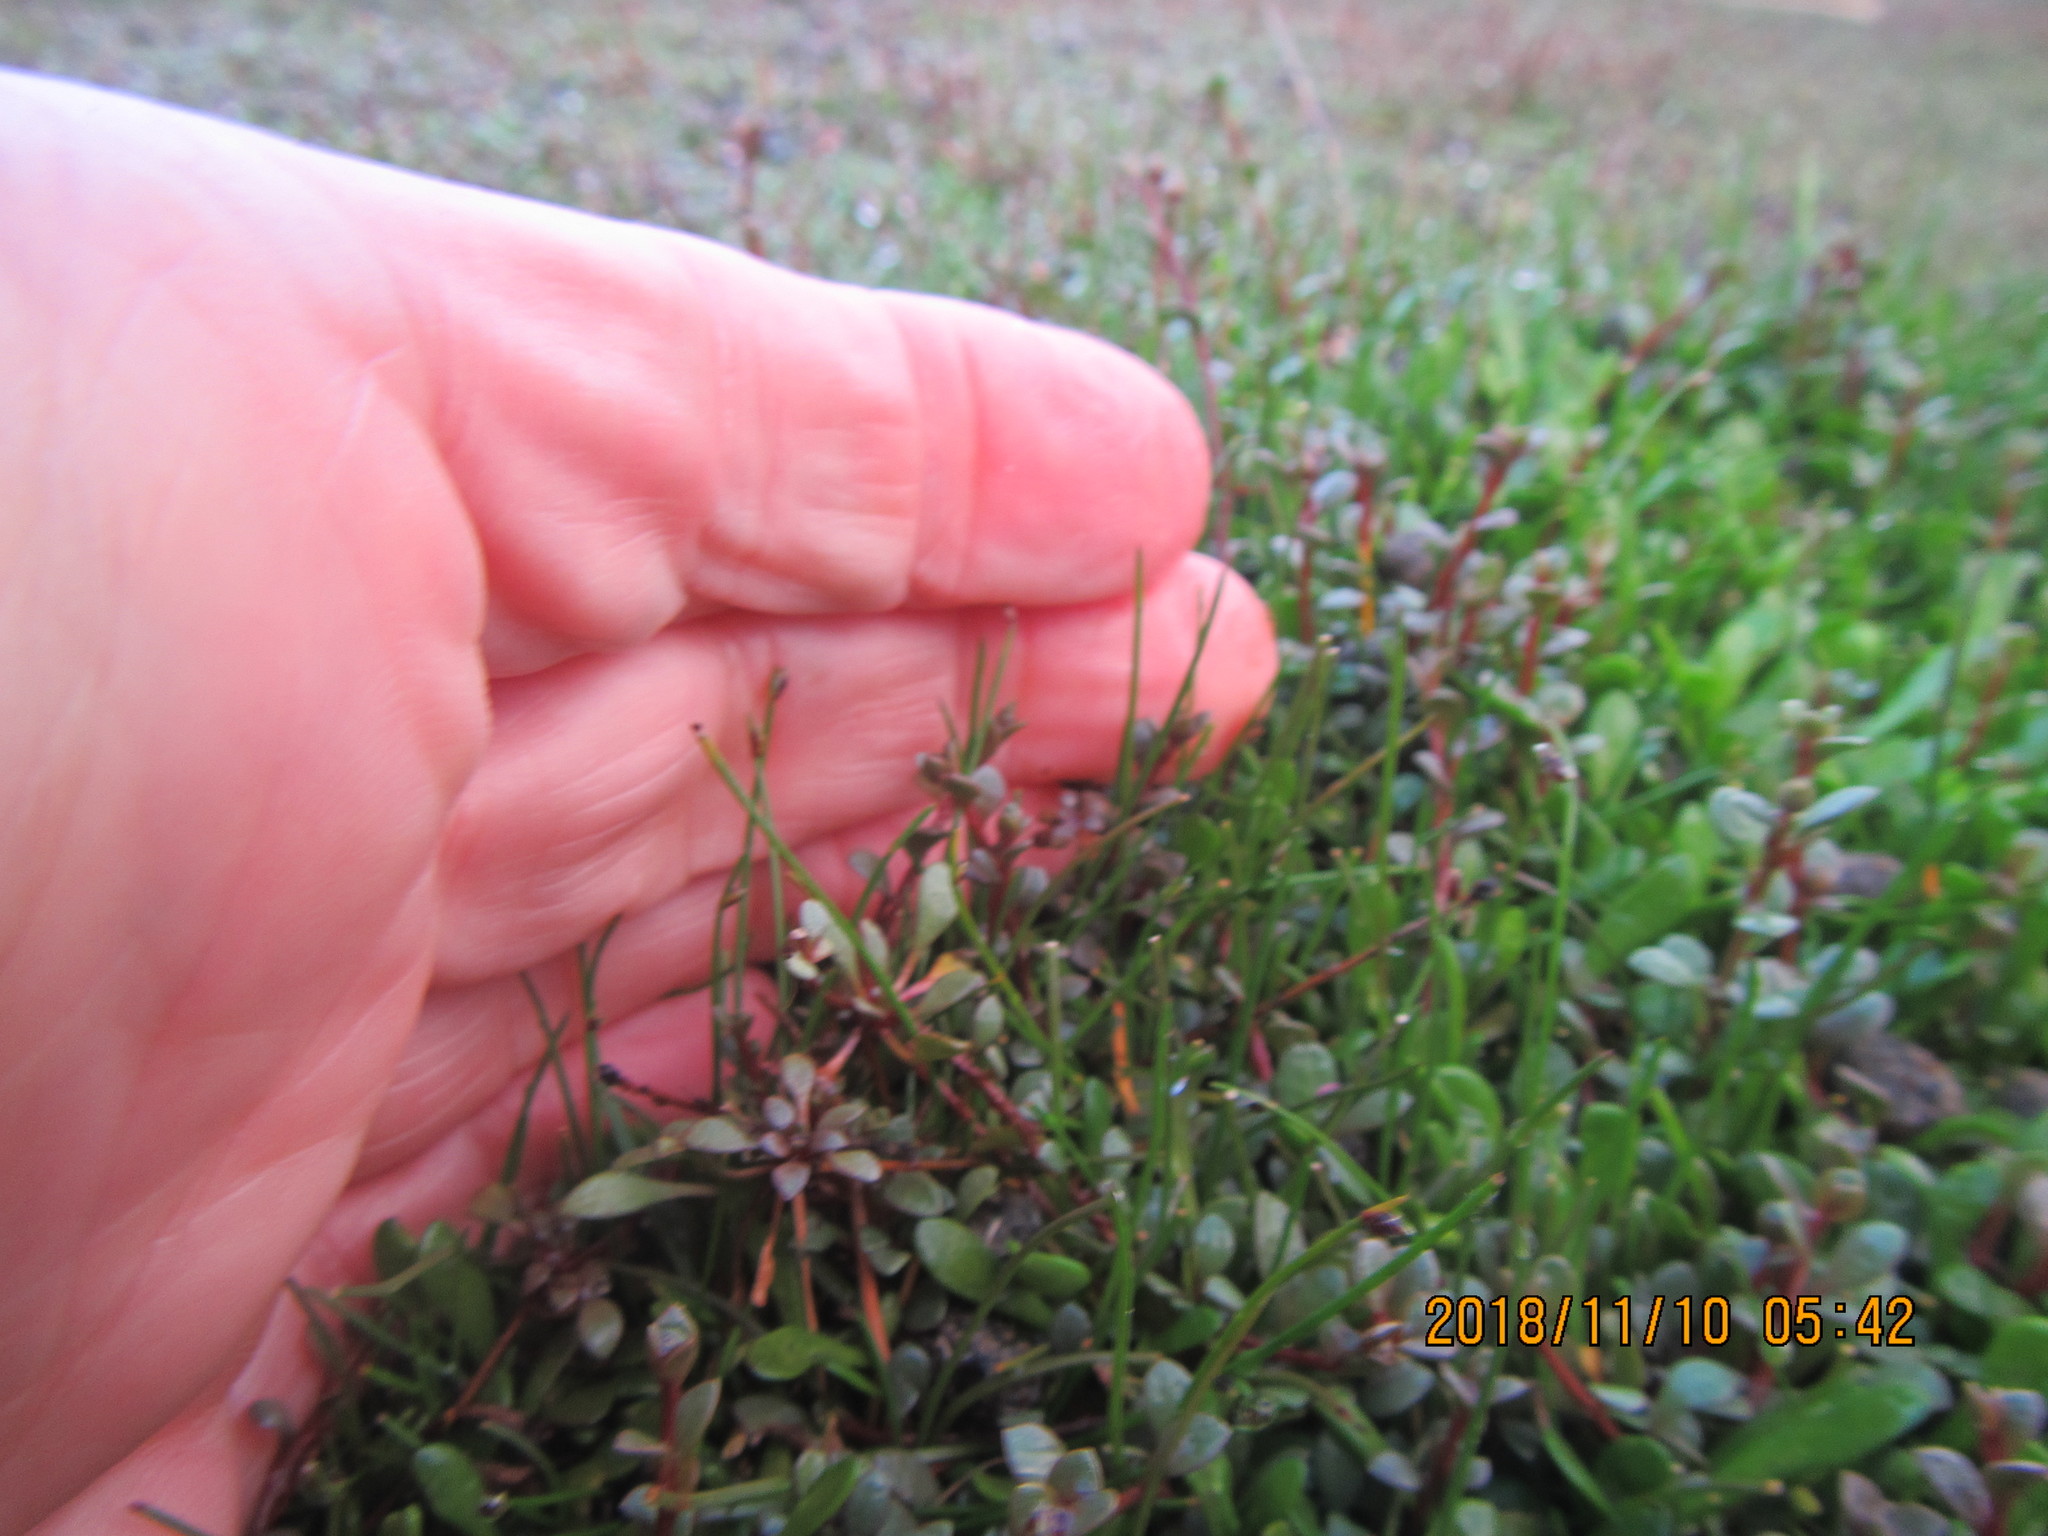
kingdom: Plantae
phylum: Tracheophyta
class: Liliopsida
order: Poales
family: Cyperaceae
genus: Isolepis
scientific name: Isolepis cernua
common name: Slender club-rush
